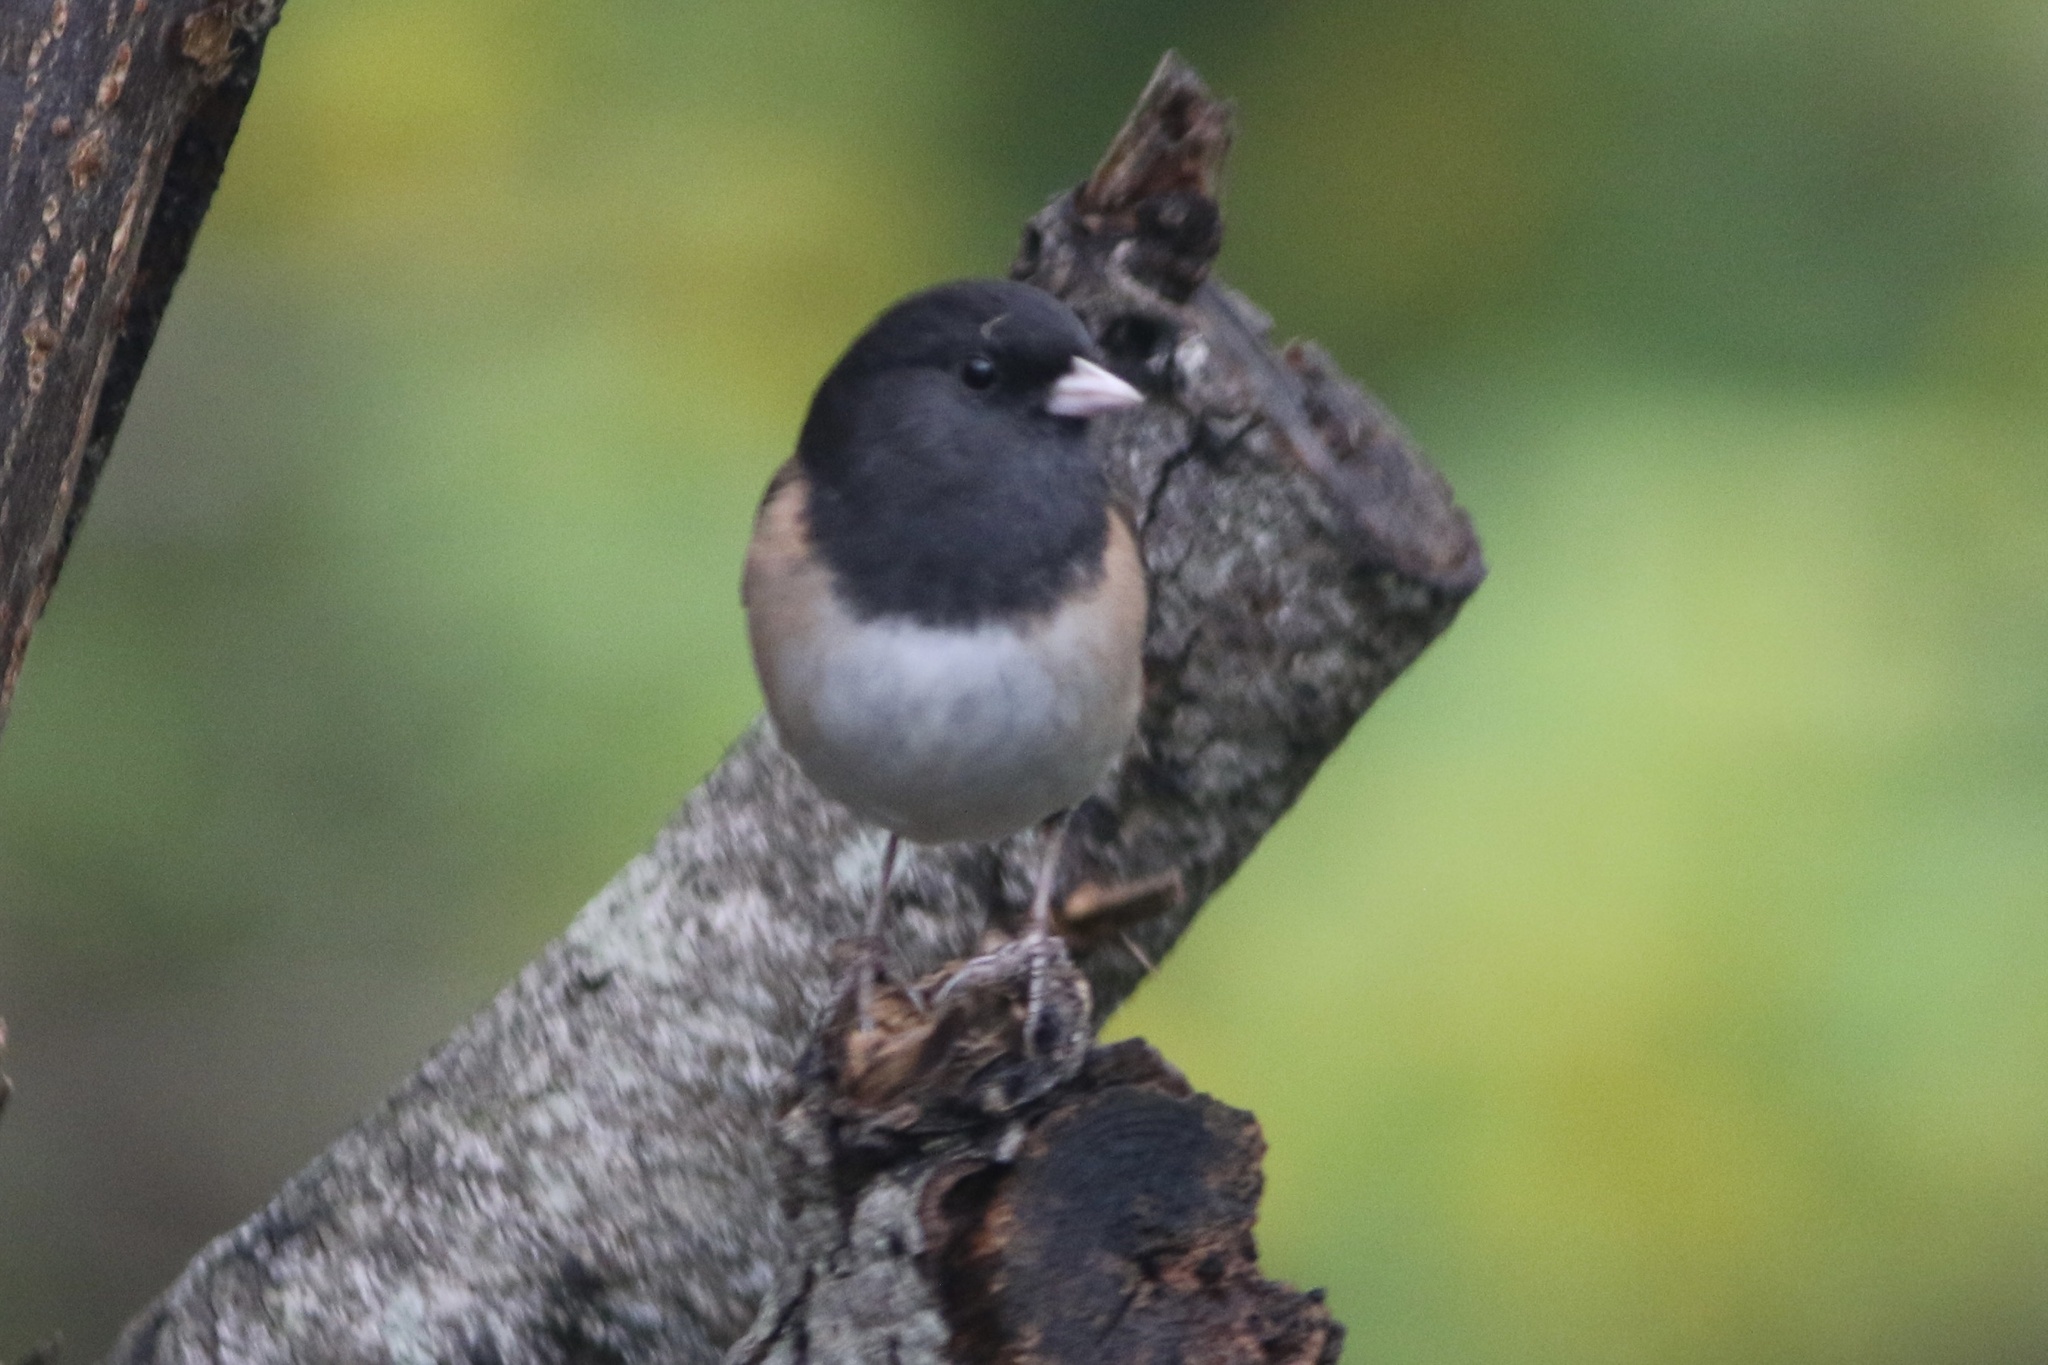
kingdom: Animalia
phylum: Chordata
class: Aves
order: Passeriformes
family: Passerellidae
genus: Junco
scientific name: Junco hyemalis
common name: Dark-eyed junco
